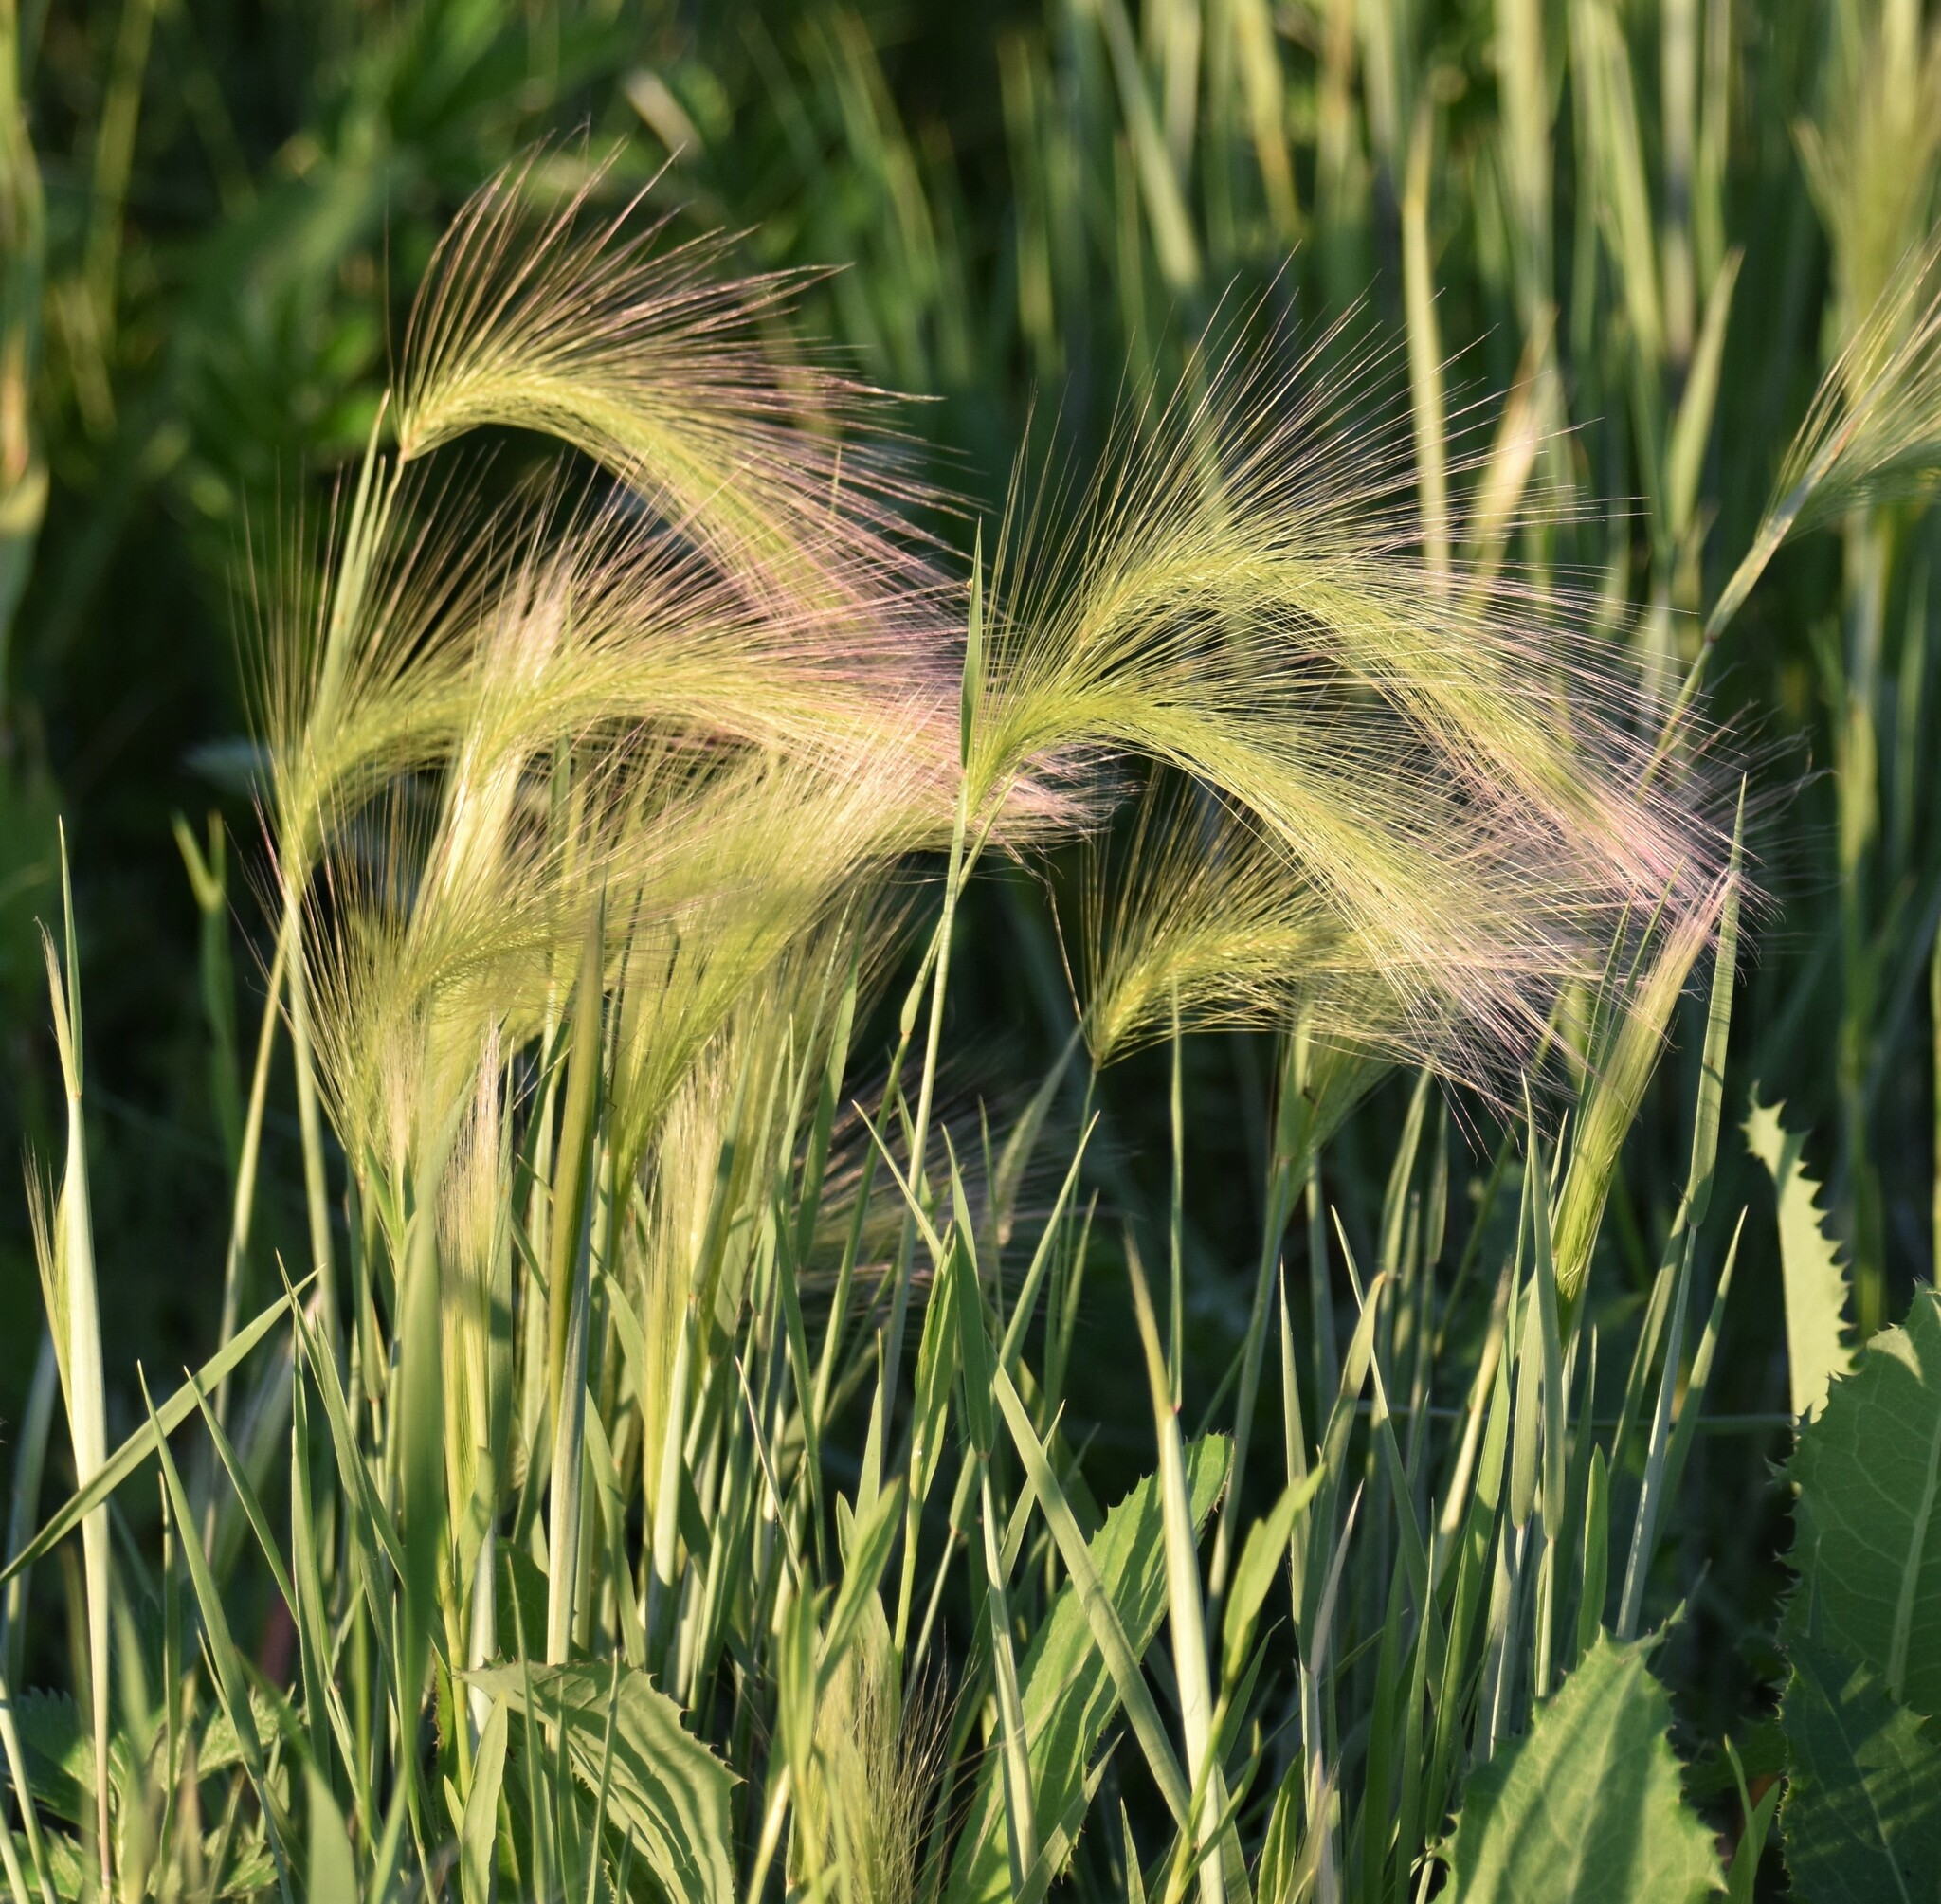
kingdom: Plantae
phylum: Tracheophyta
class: Liliopsida
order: Poales
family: Poaceae
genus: Hordeum
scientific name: Hordeum jubatum
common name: Foxtail barley
